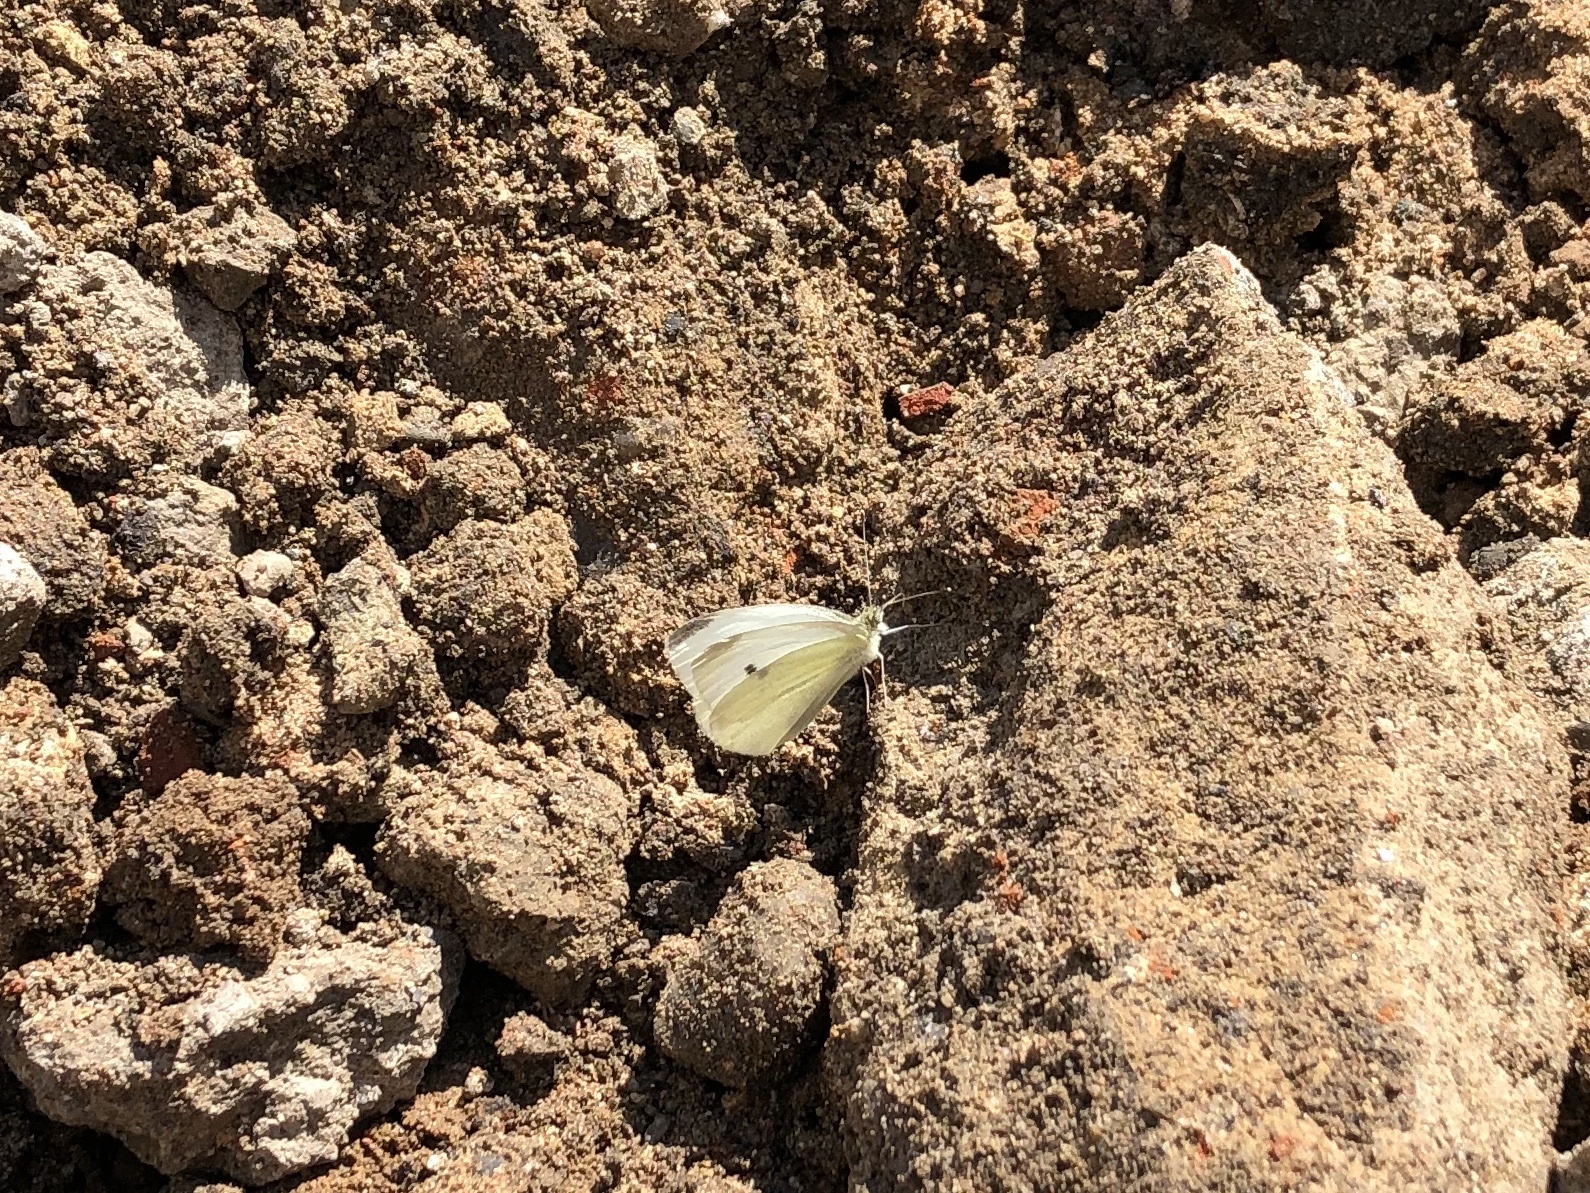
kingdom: Animalia
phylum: Arthropoda
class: Insecta
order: Lepidoptera
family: Pieridae
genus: Pieris
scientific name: Pieris rapae
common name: Small white
